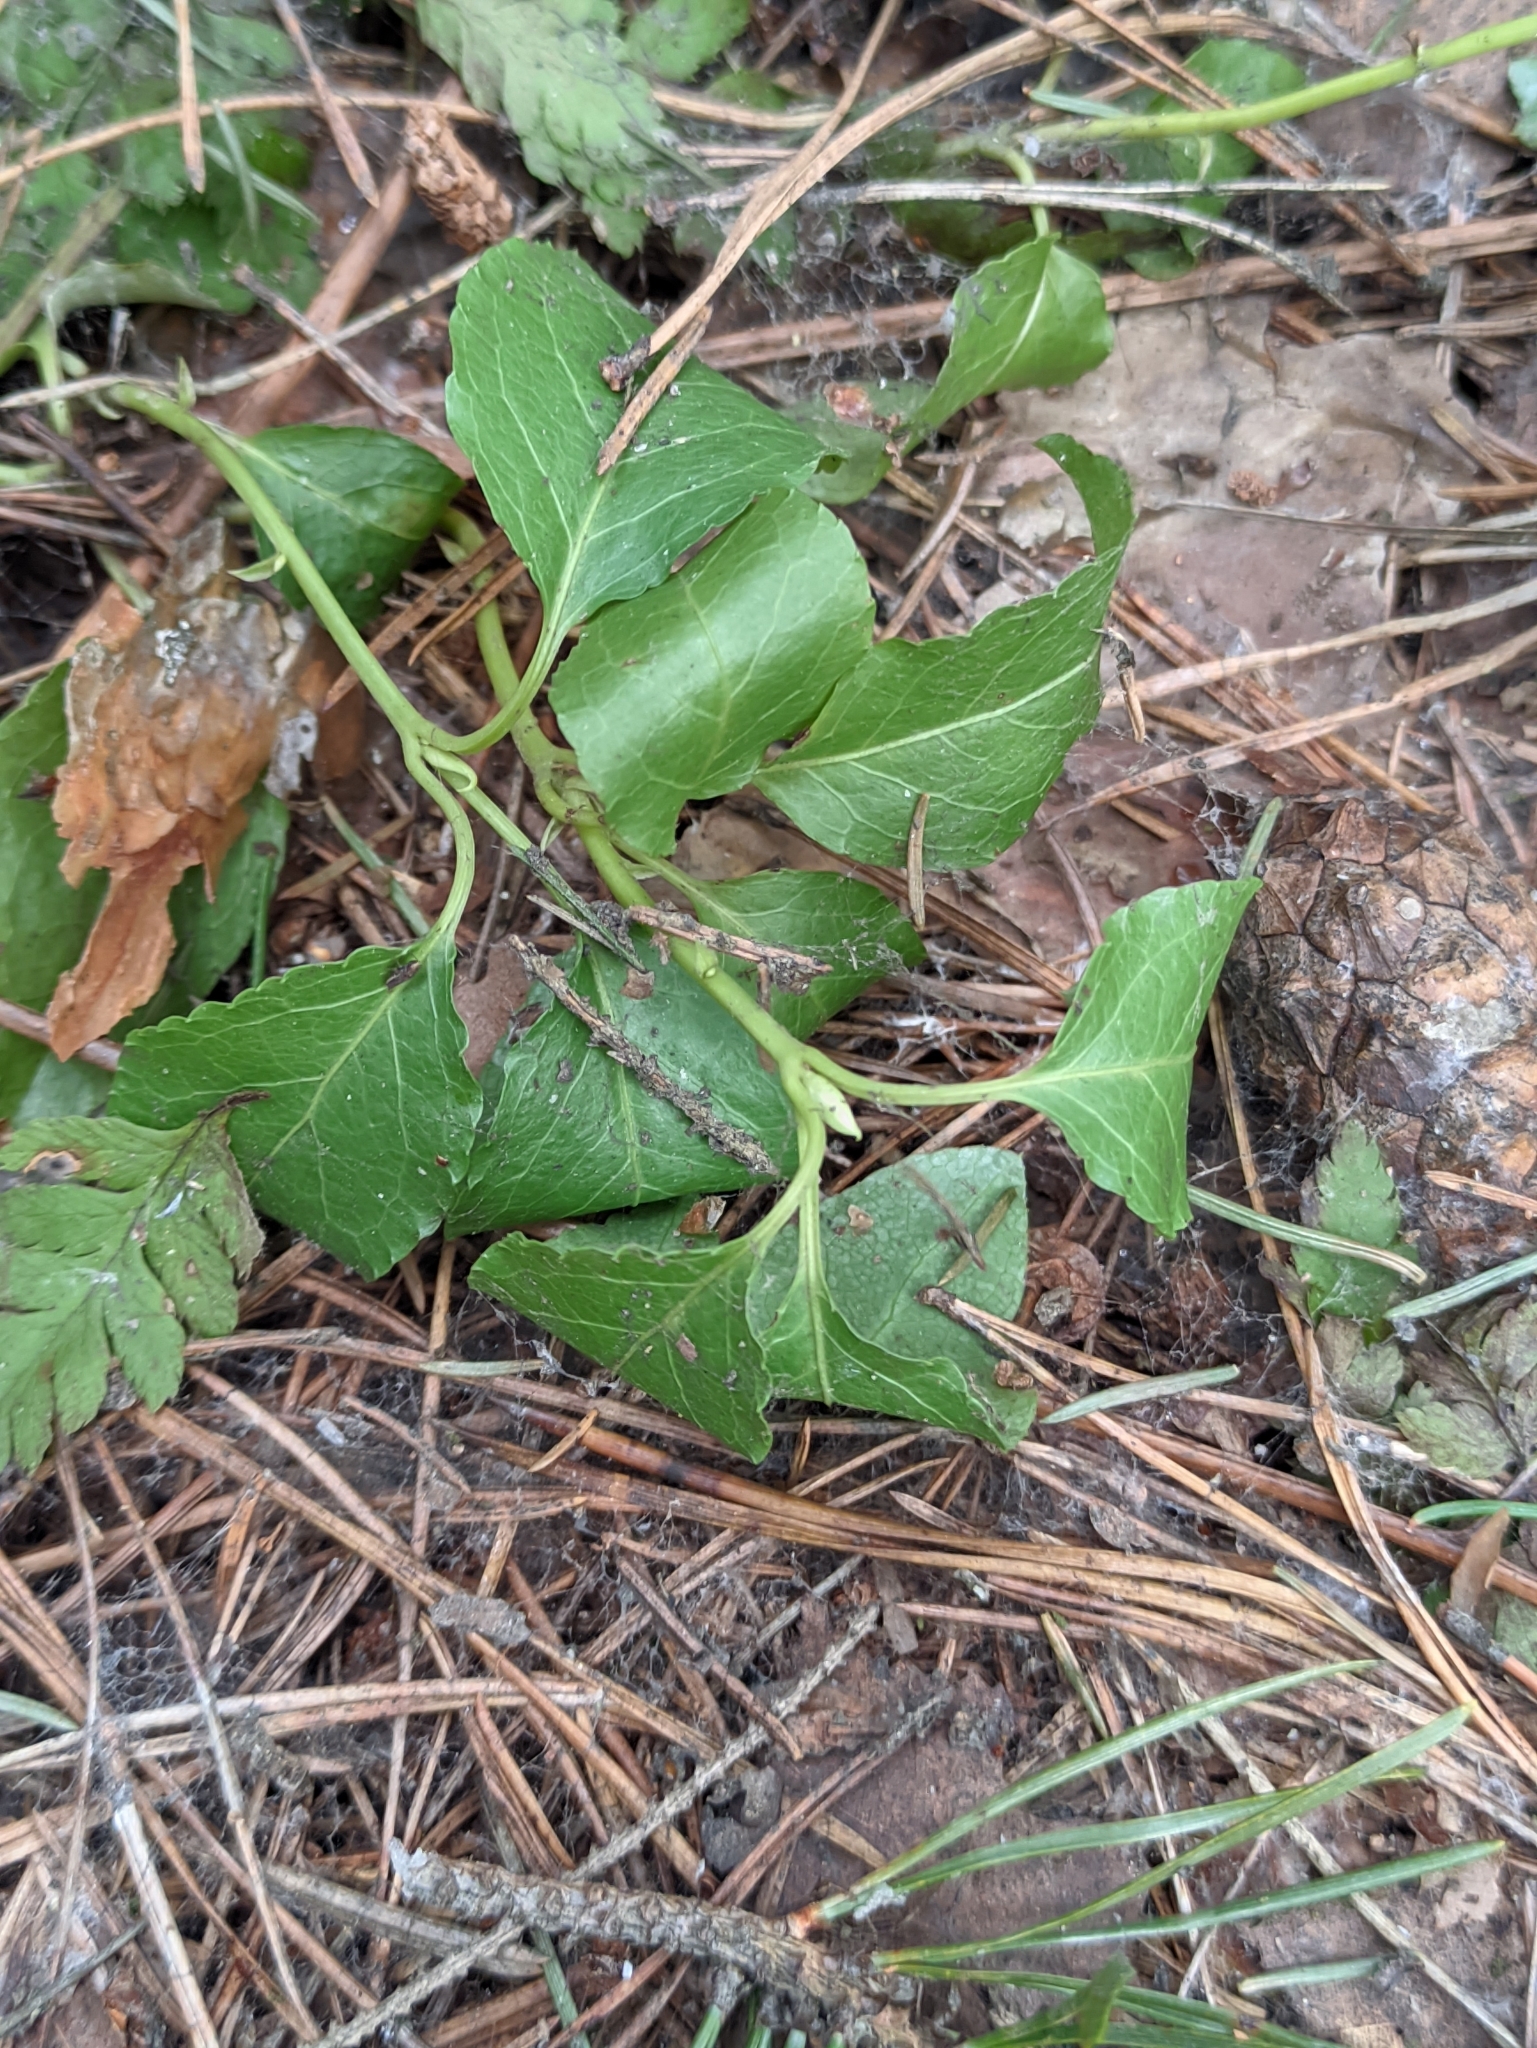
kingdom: Plantae
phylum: Tracheophyta
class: Magnoliopsida
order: Ericales
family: Ericaceae
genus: Orthilia
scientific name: Orthilia secunda
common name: One-sided orthilia
